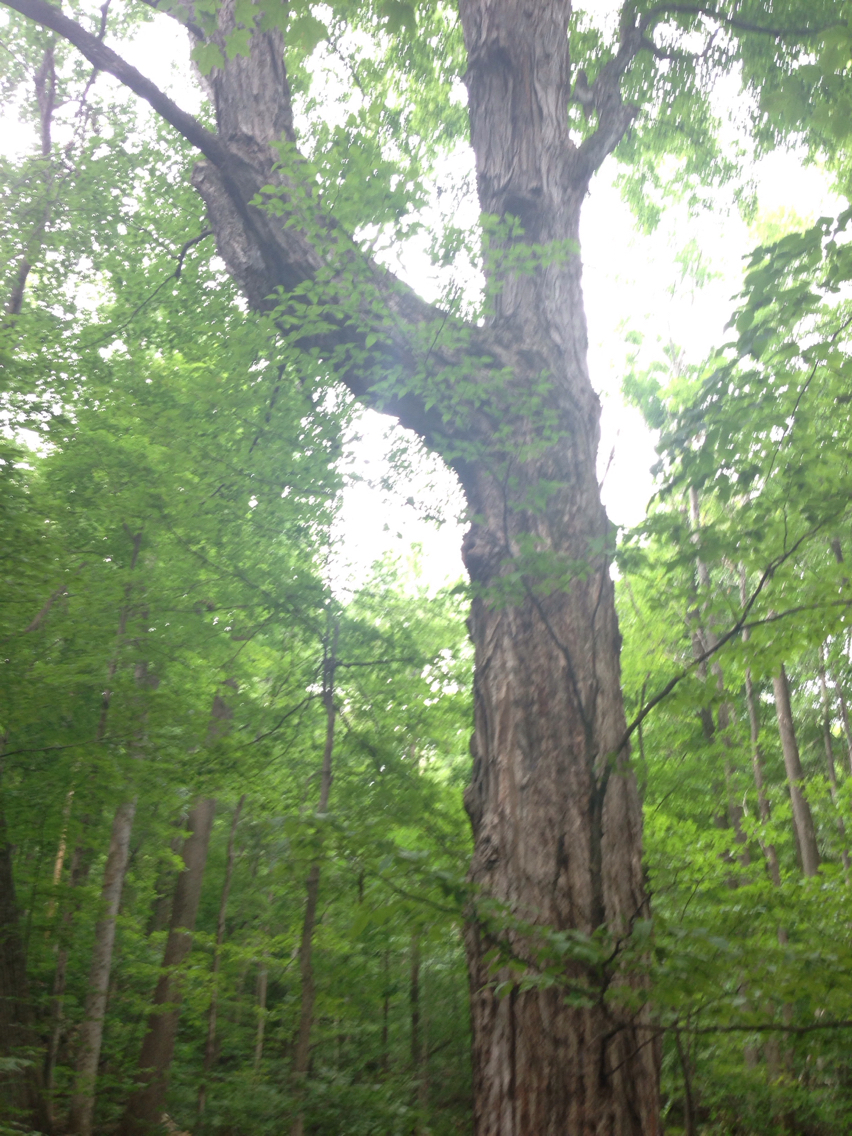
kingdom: Plantae
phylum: Tracheophyta
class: Magnoliopsida
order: Sapindales
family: Sapindaceae
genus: Acer
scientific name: Acer saccharum
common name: Sugar maple
